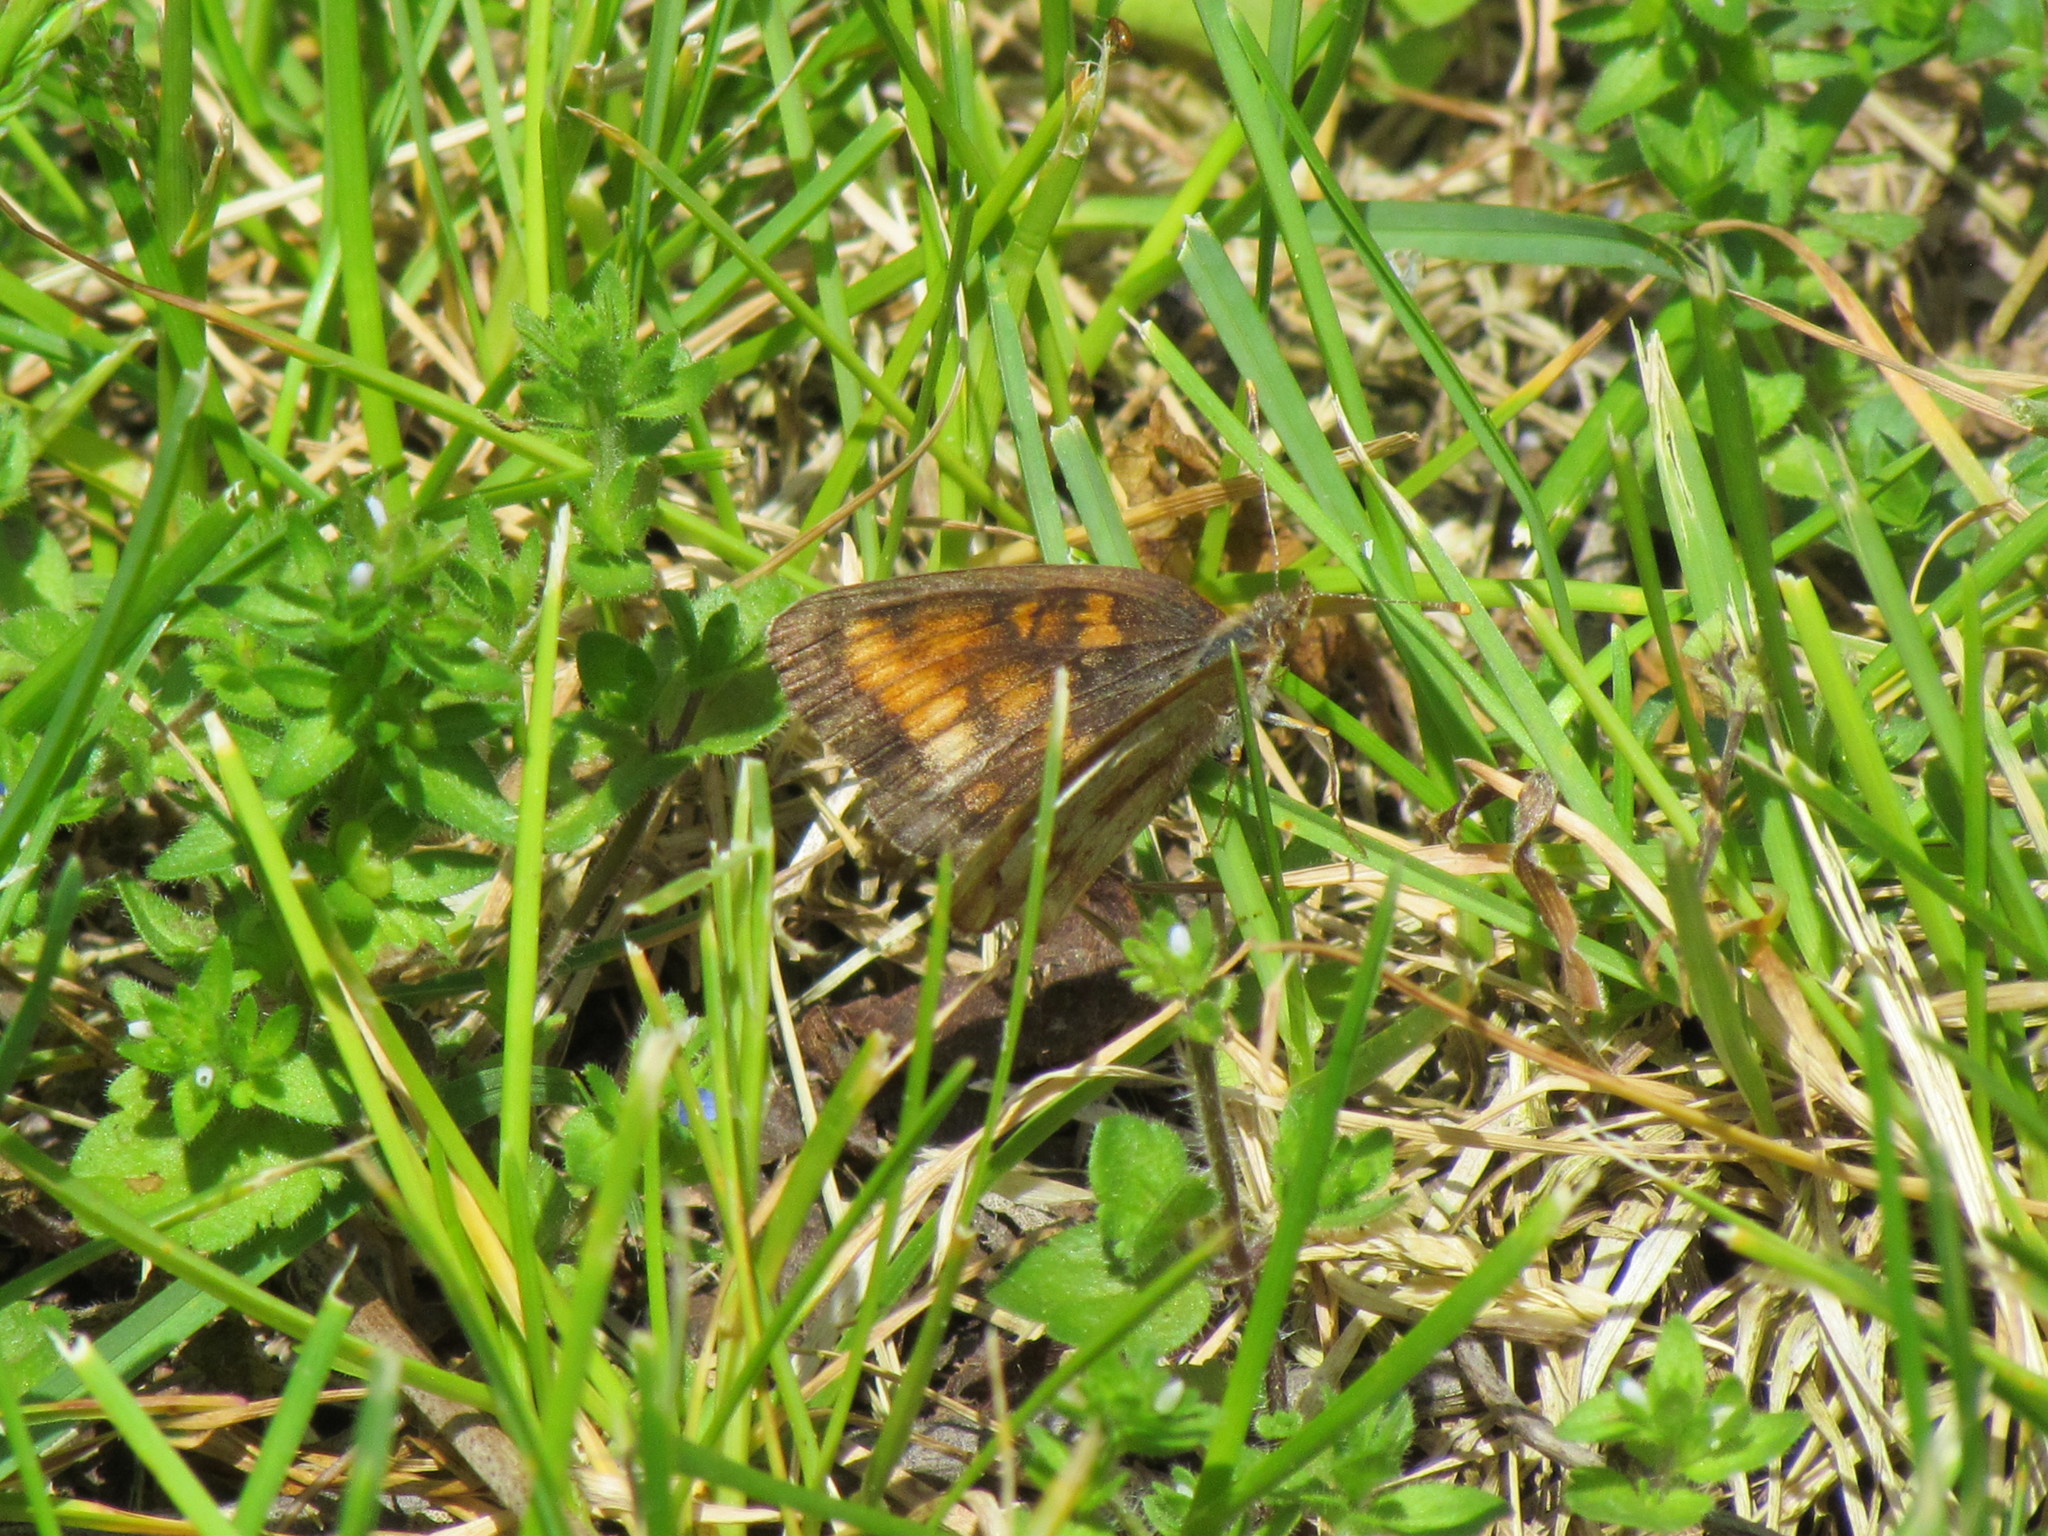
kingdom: Animalia
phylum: Arthropoda
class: Insecta
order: Lepidoptera
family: Nymphalidae
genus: Phyciodes
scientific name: Phyciodes tharos
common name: Pearl crescent
